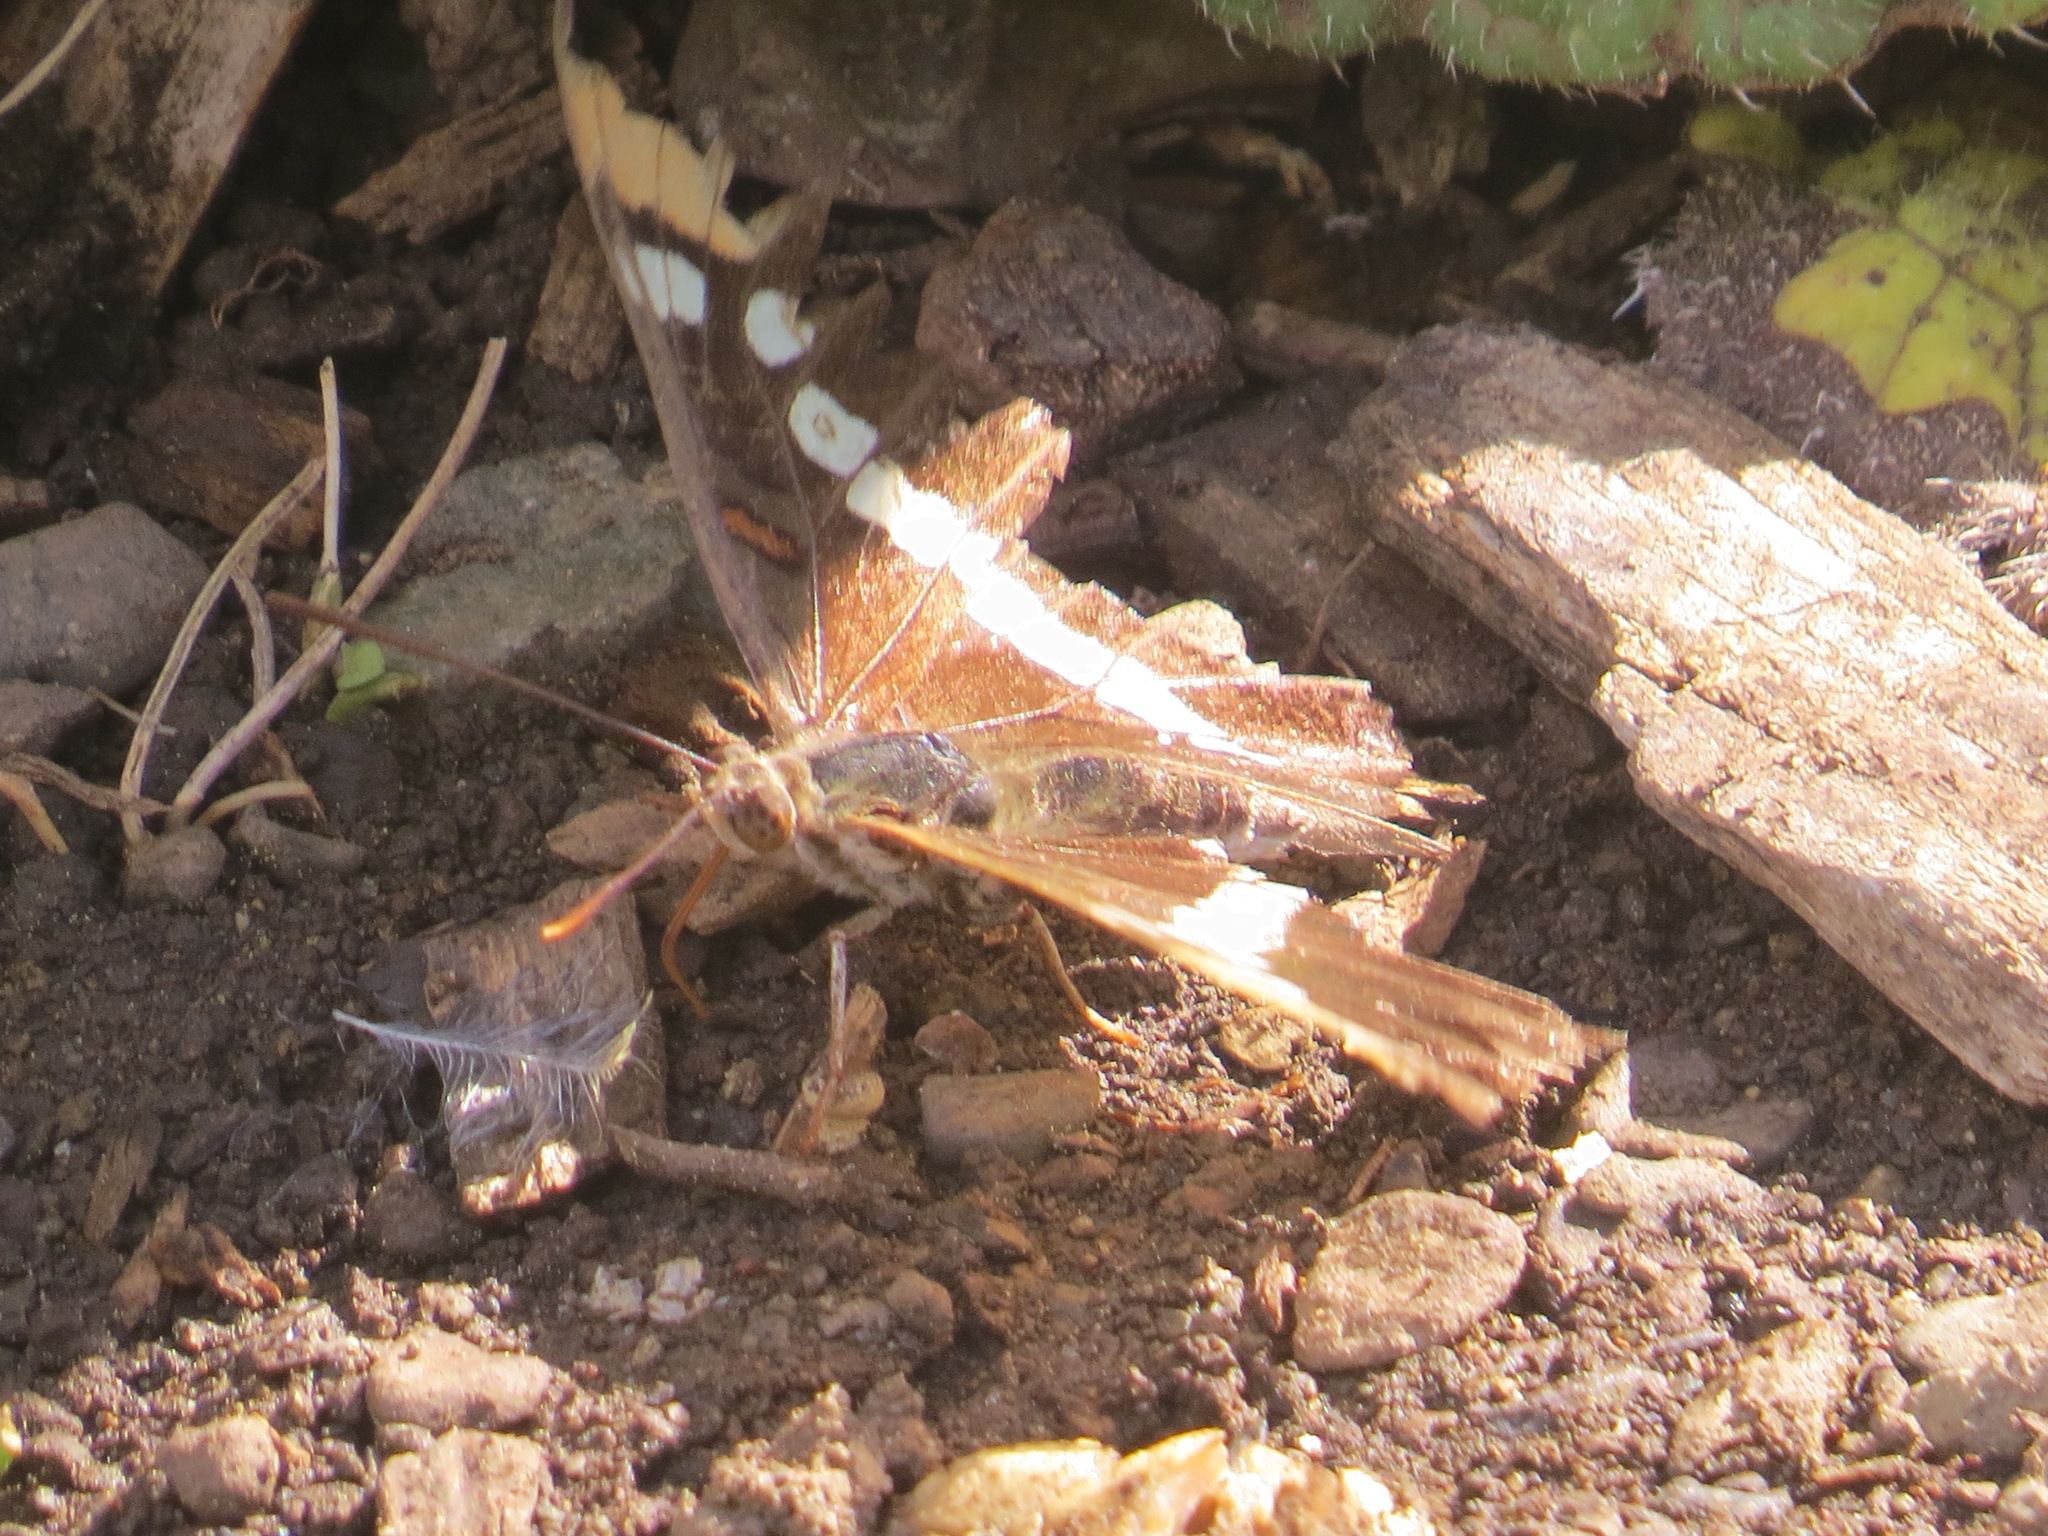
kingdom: Animalia
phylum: Arthropoda
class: Insecta
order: Lepidoptera
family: Nymphalidae
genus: Limenitis
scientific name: Limenitis bredowii
